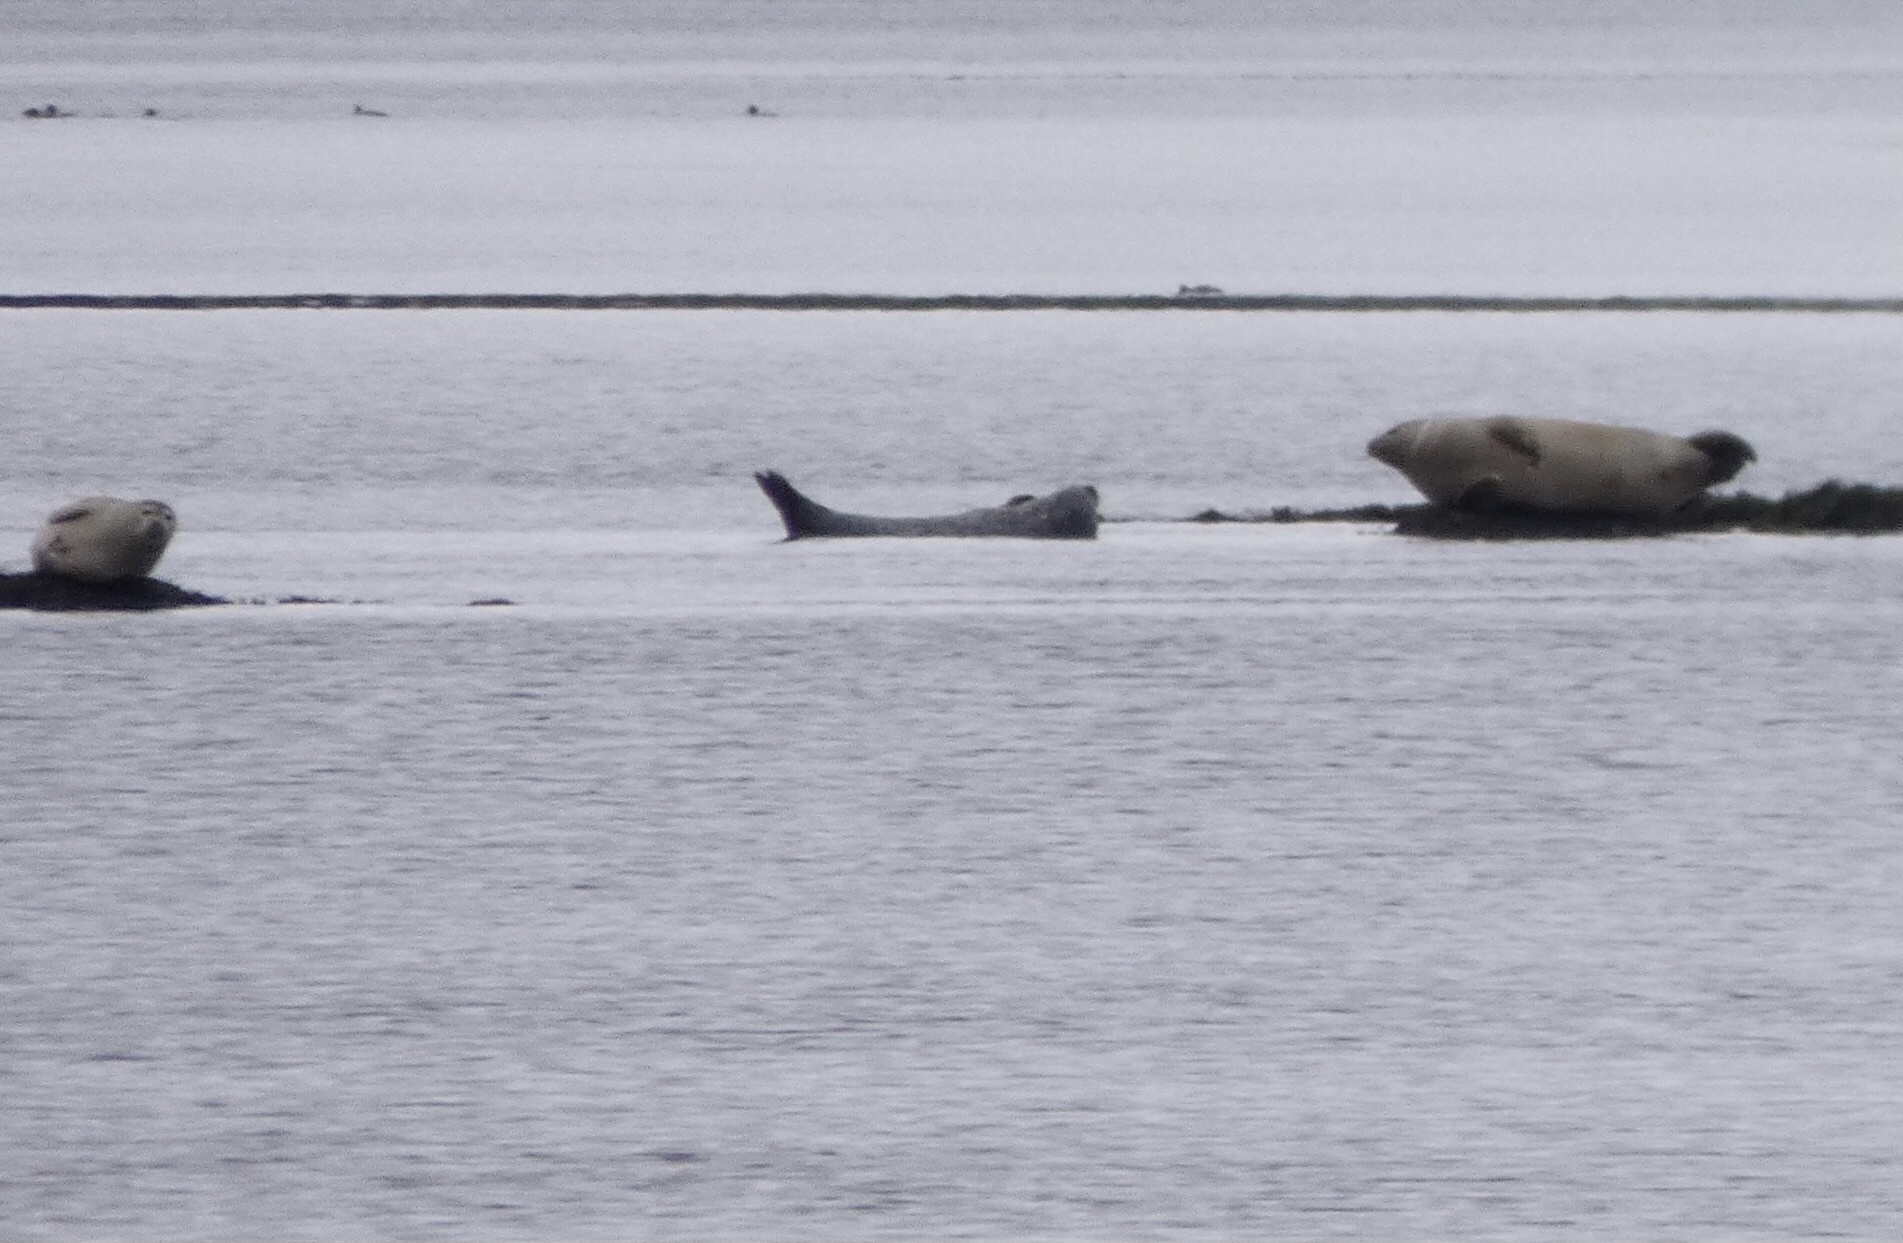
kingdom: Animalia
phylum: Chordata
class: Mammalia
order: Carnivora
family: Phocidae
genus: Phoca
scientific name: Phoca vitulina
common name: Harbor seal
